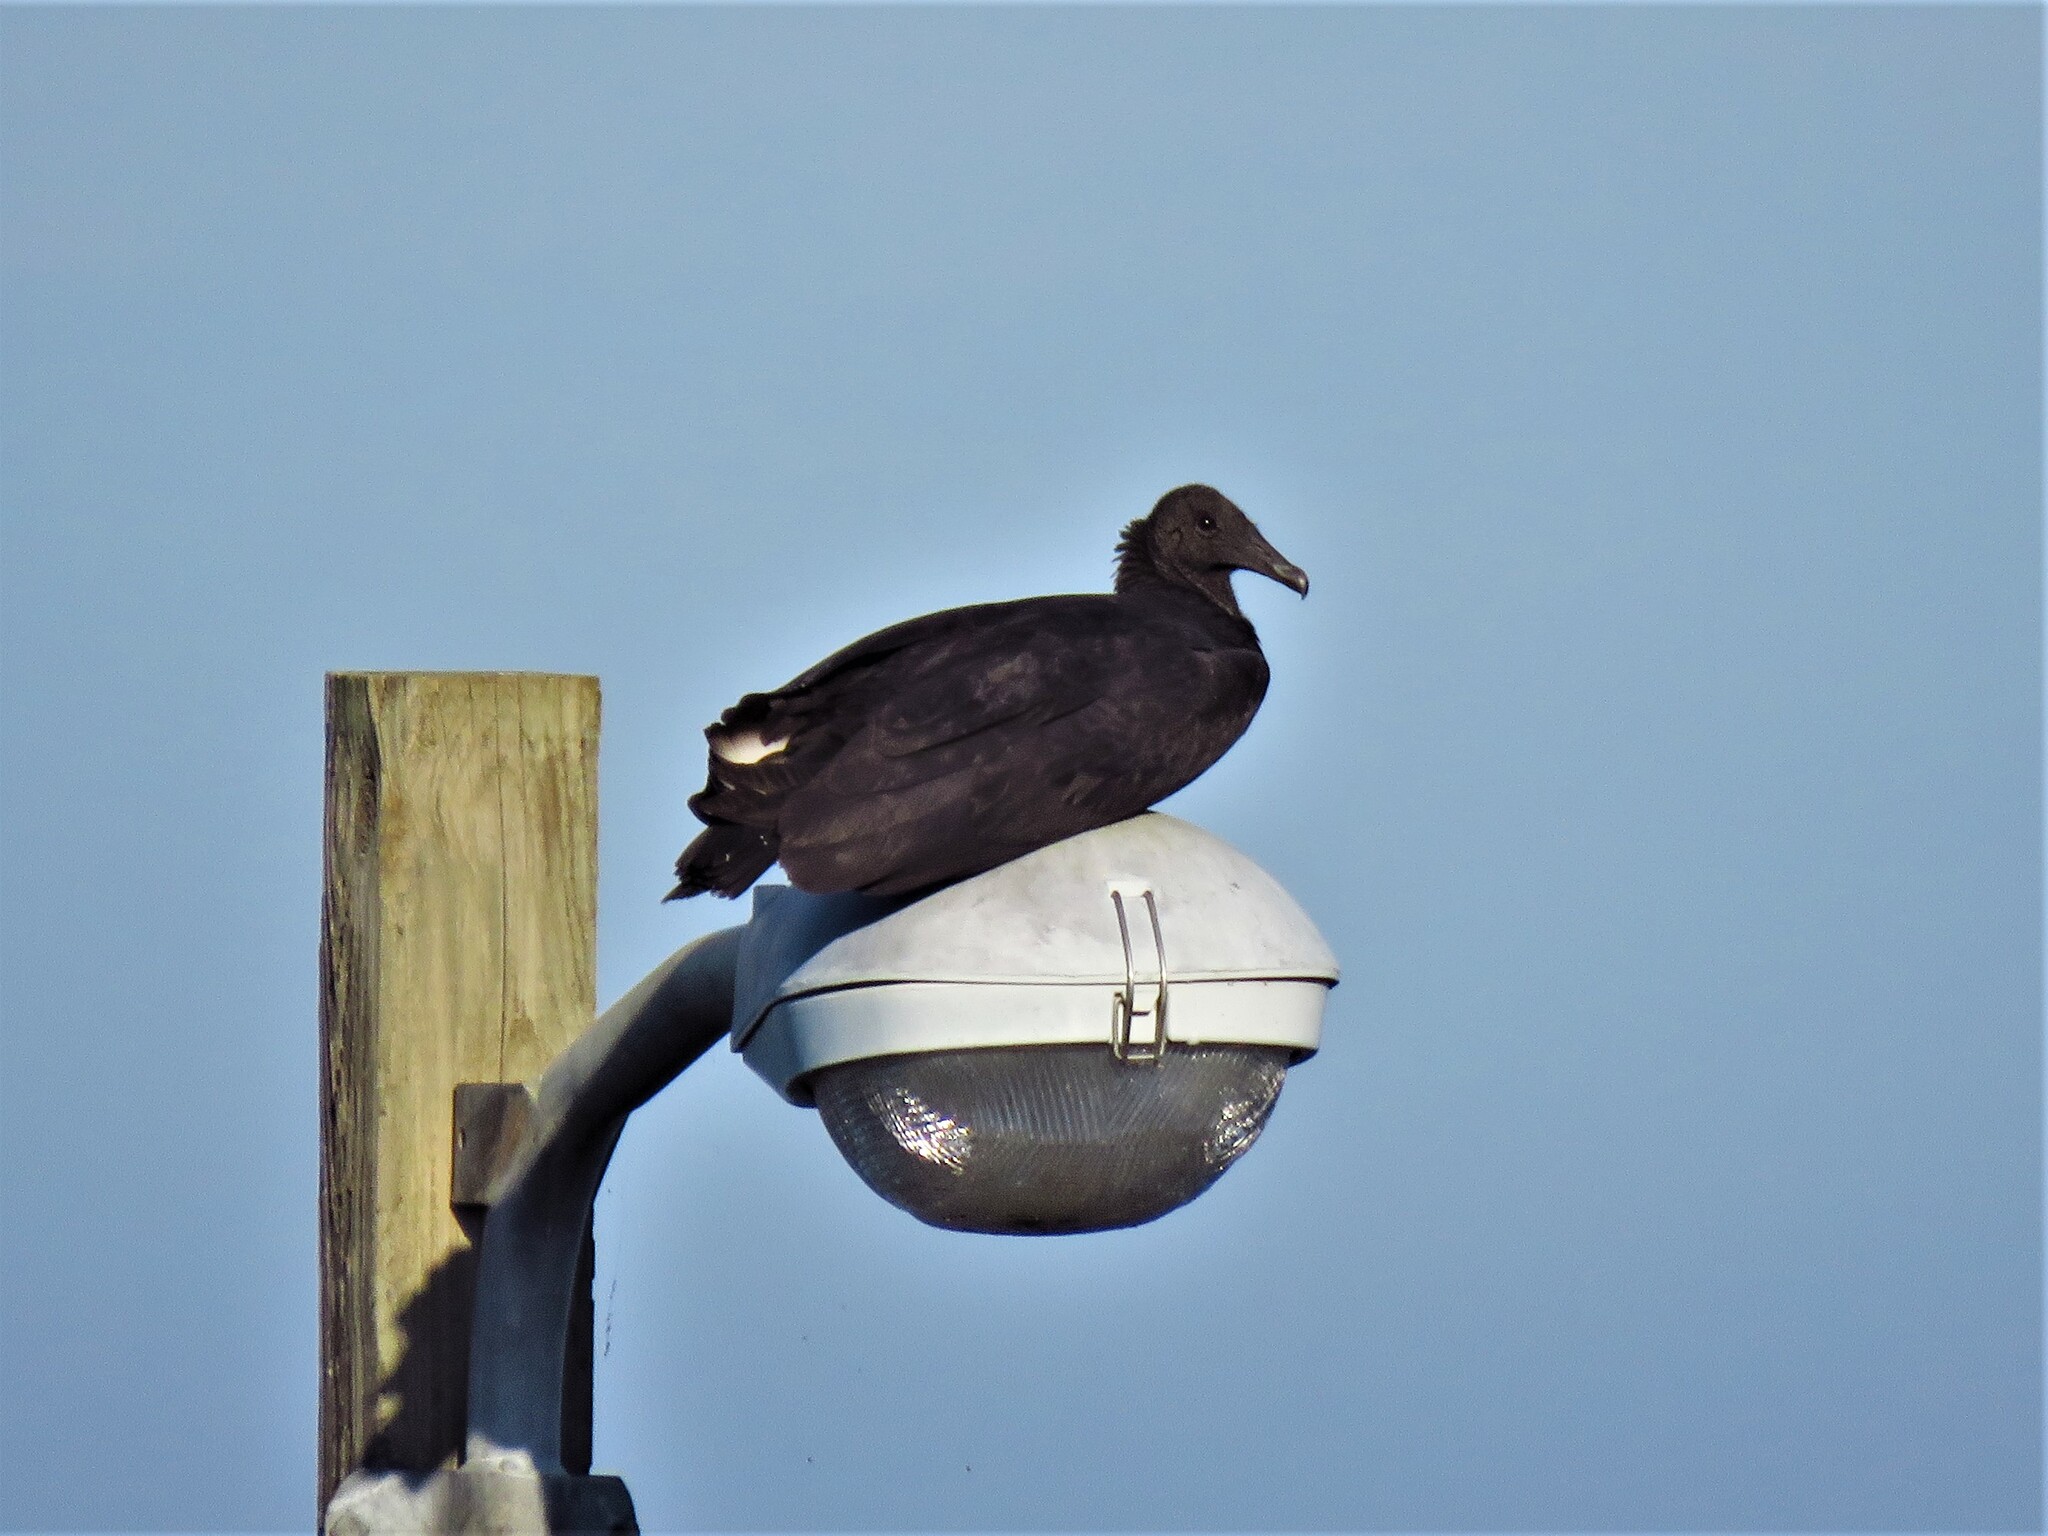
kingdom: Animalia
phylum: Chordata
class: Aves
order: Accipitriformes
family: Cathartidae
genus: Coragyps
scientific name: Coragyps atratus
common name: Black vulture
